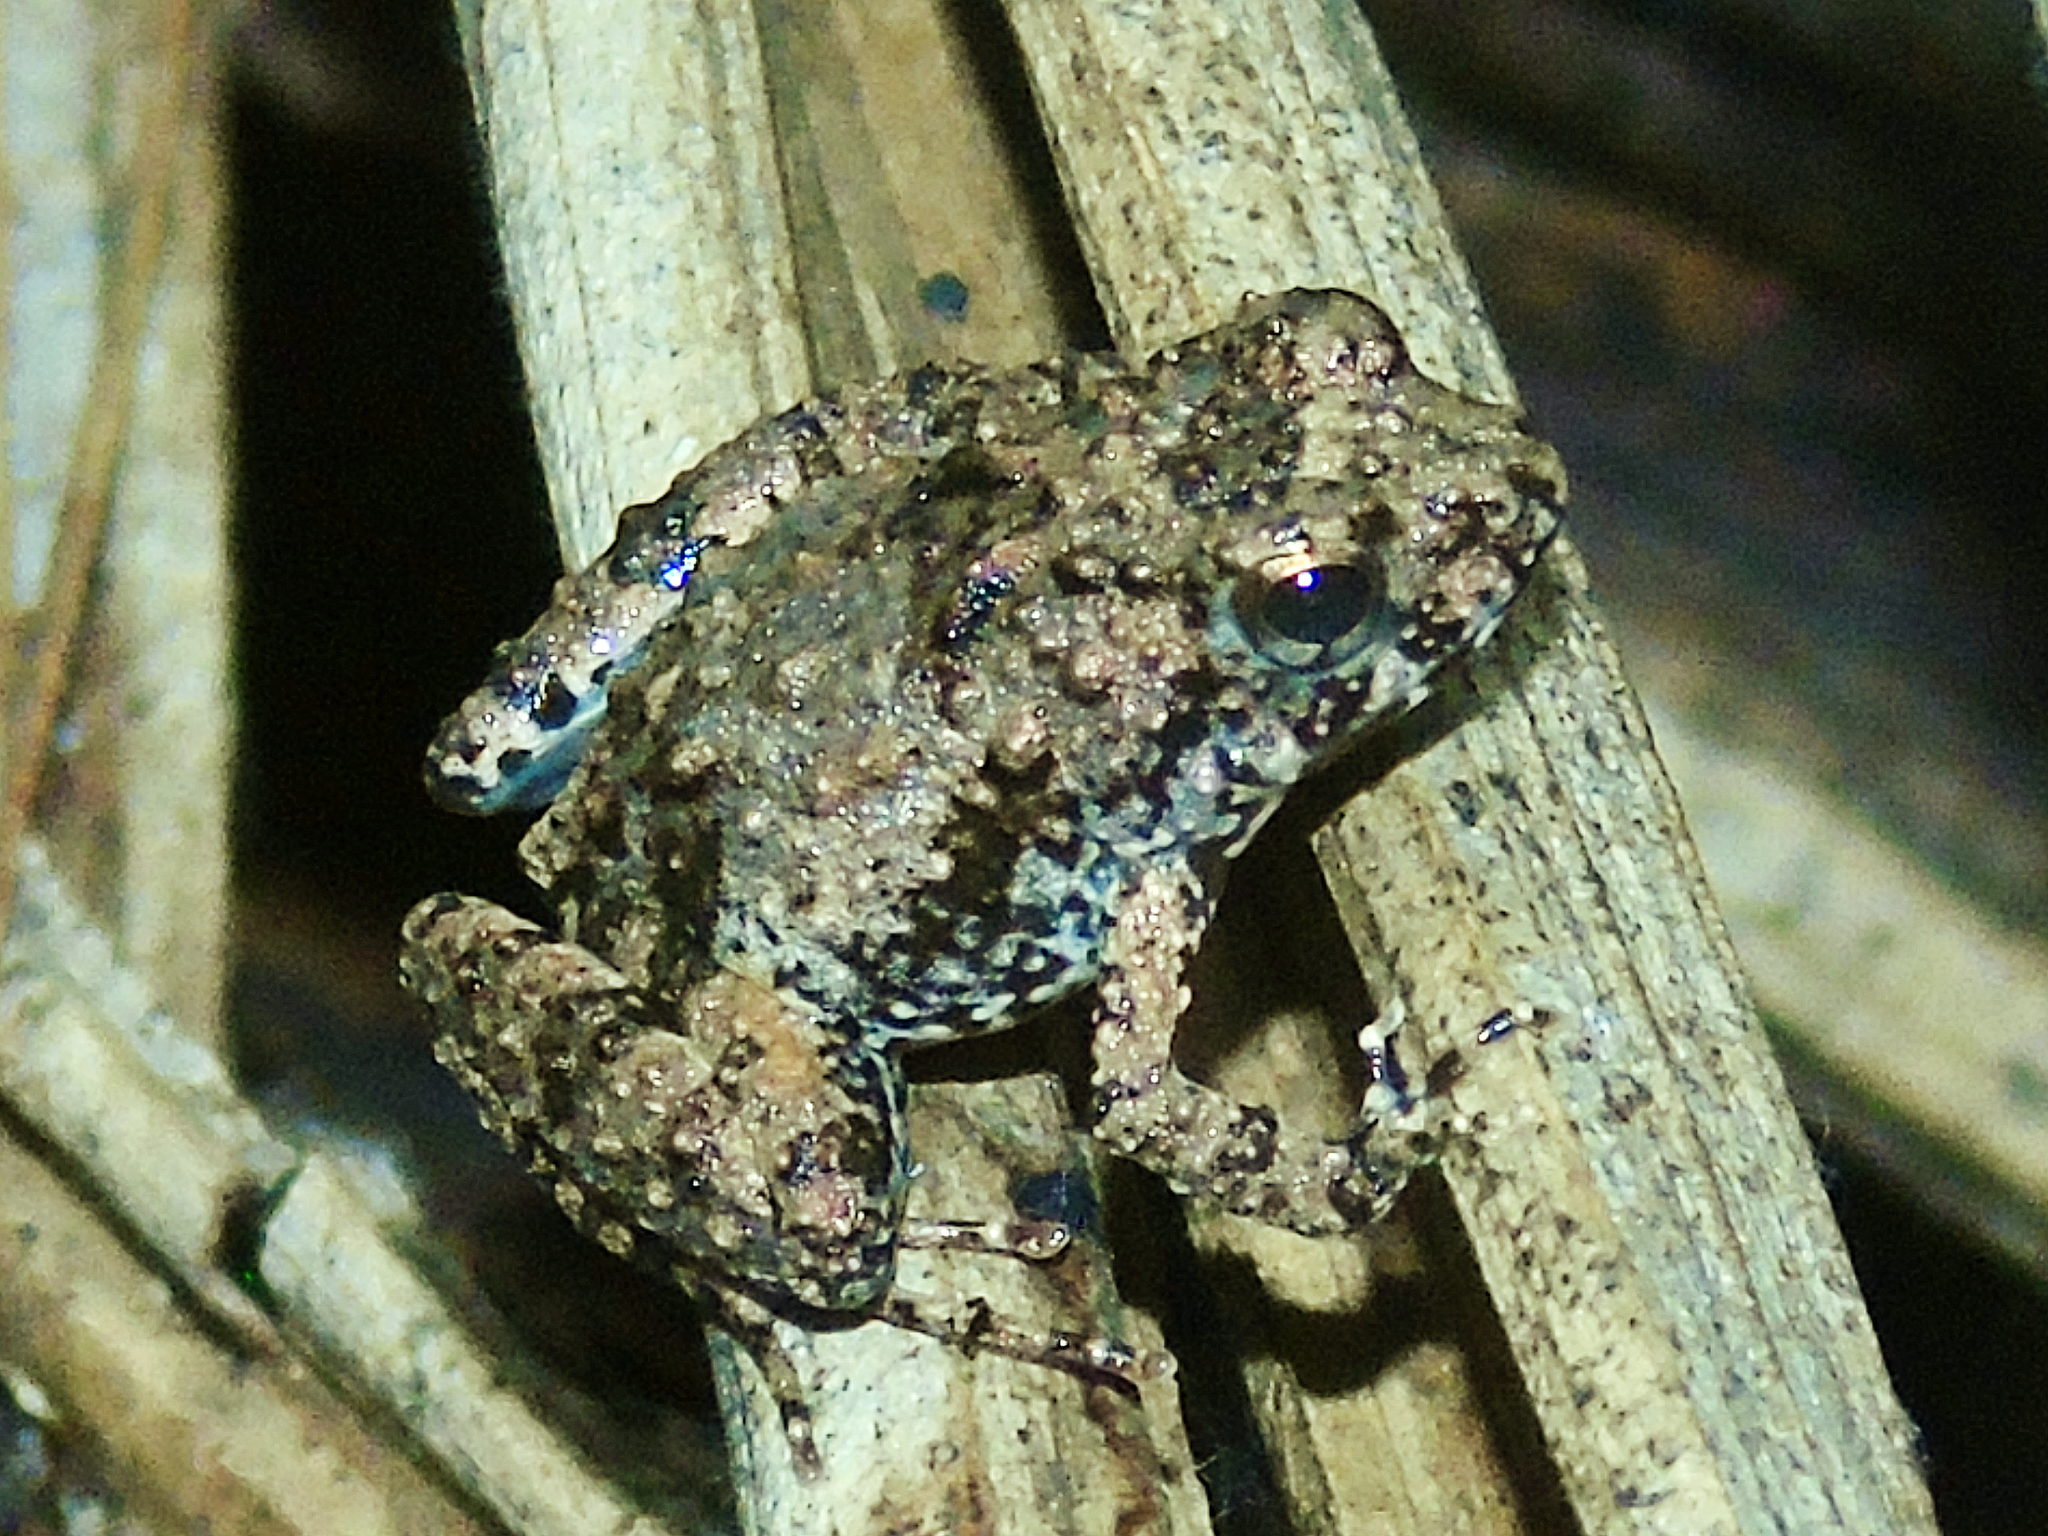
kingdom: Animalia
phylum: Chordata
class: Amphibia
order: Anura
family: Phrynobatrachidae
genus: Phrynobatrachus
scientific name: Phrynobatrachus ungujae
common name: Zanzibar puddle frog
